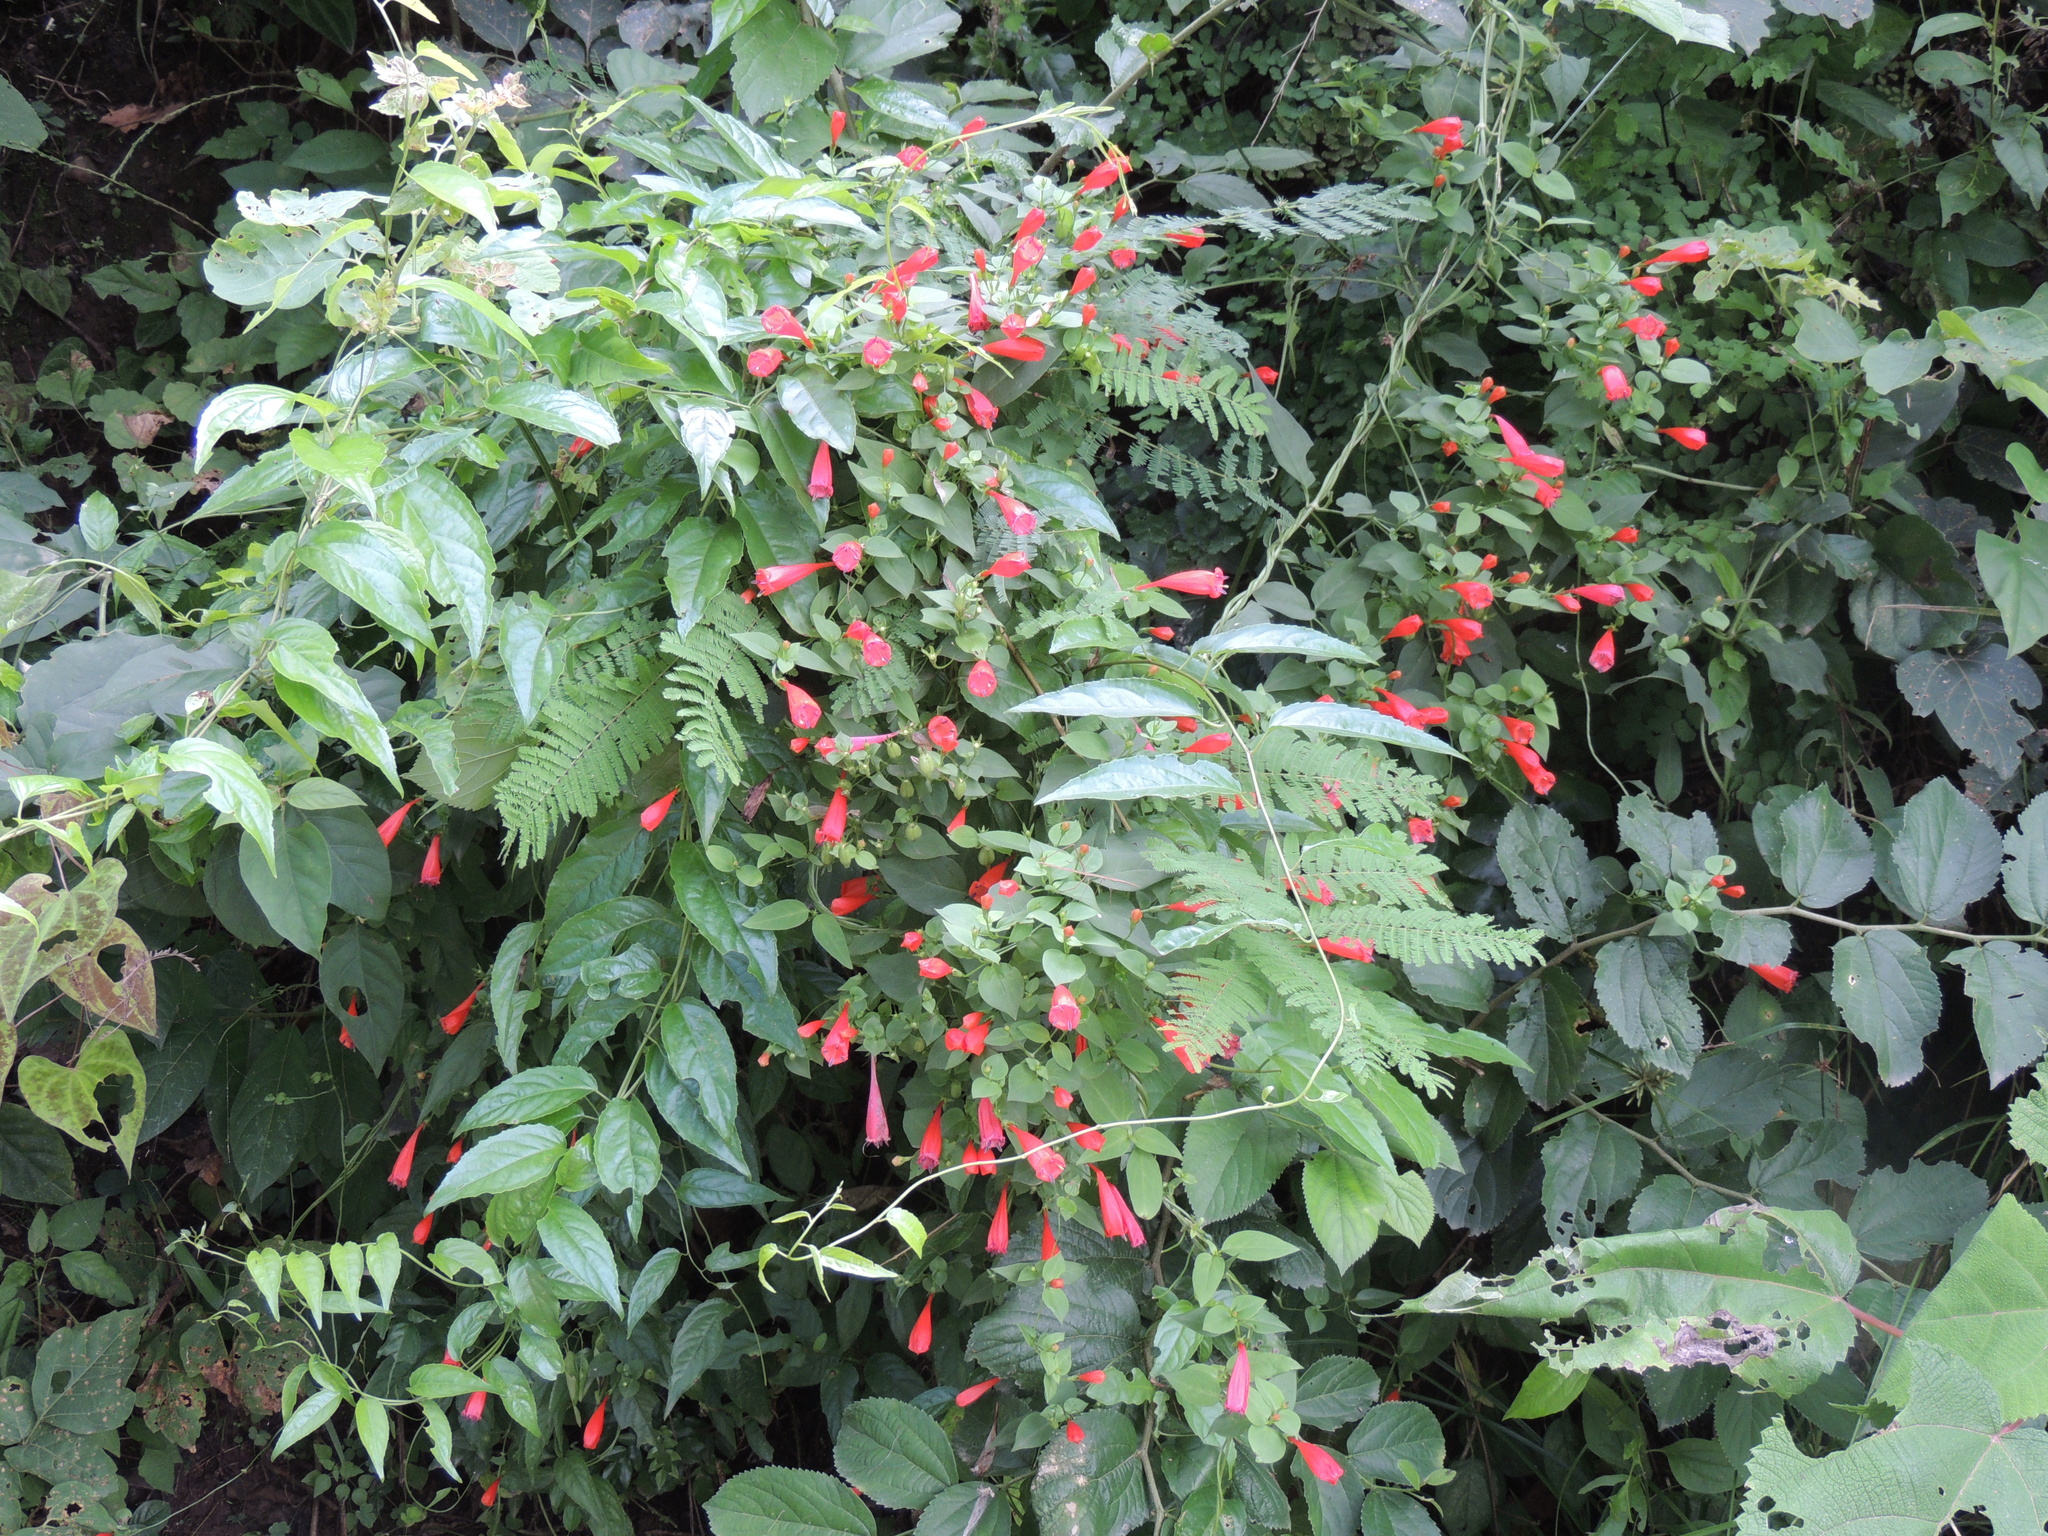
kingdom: Plantae
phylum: Tracheophyta
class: Magnoliopsida
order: Gentianales
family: Rubiaceae
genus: Manettia
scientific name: Manettia cordifolia
